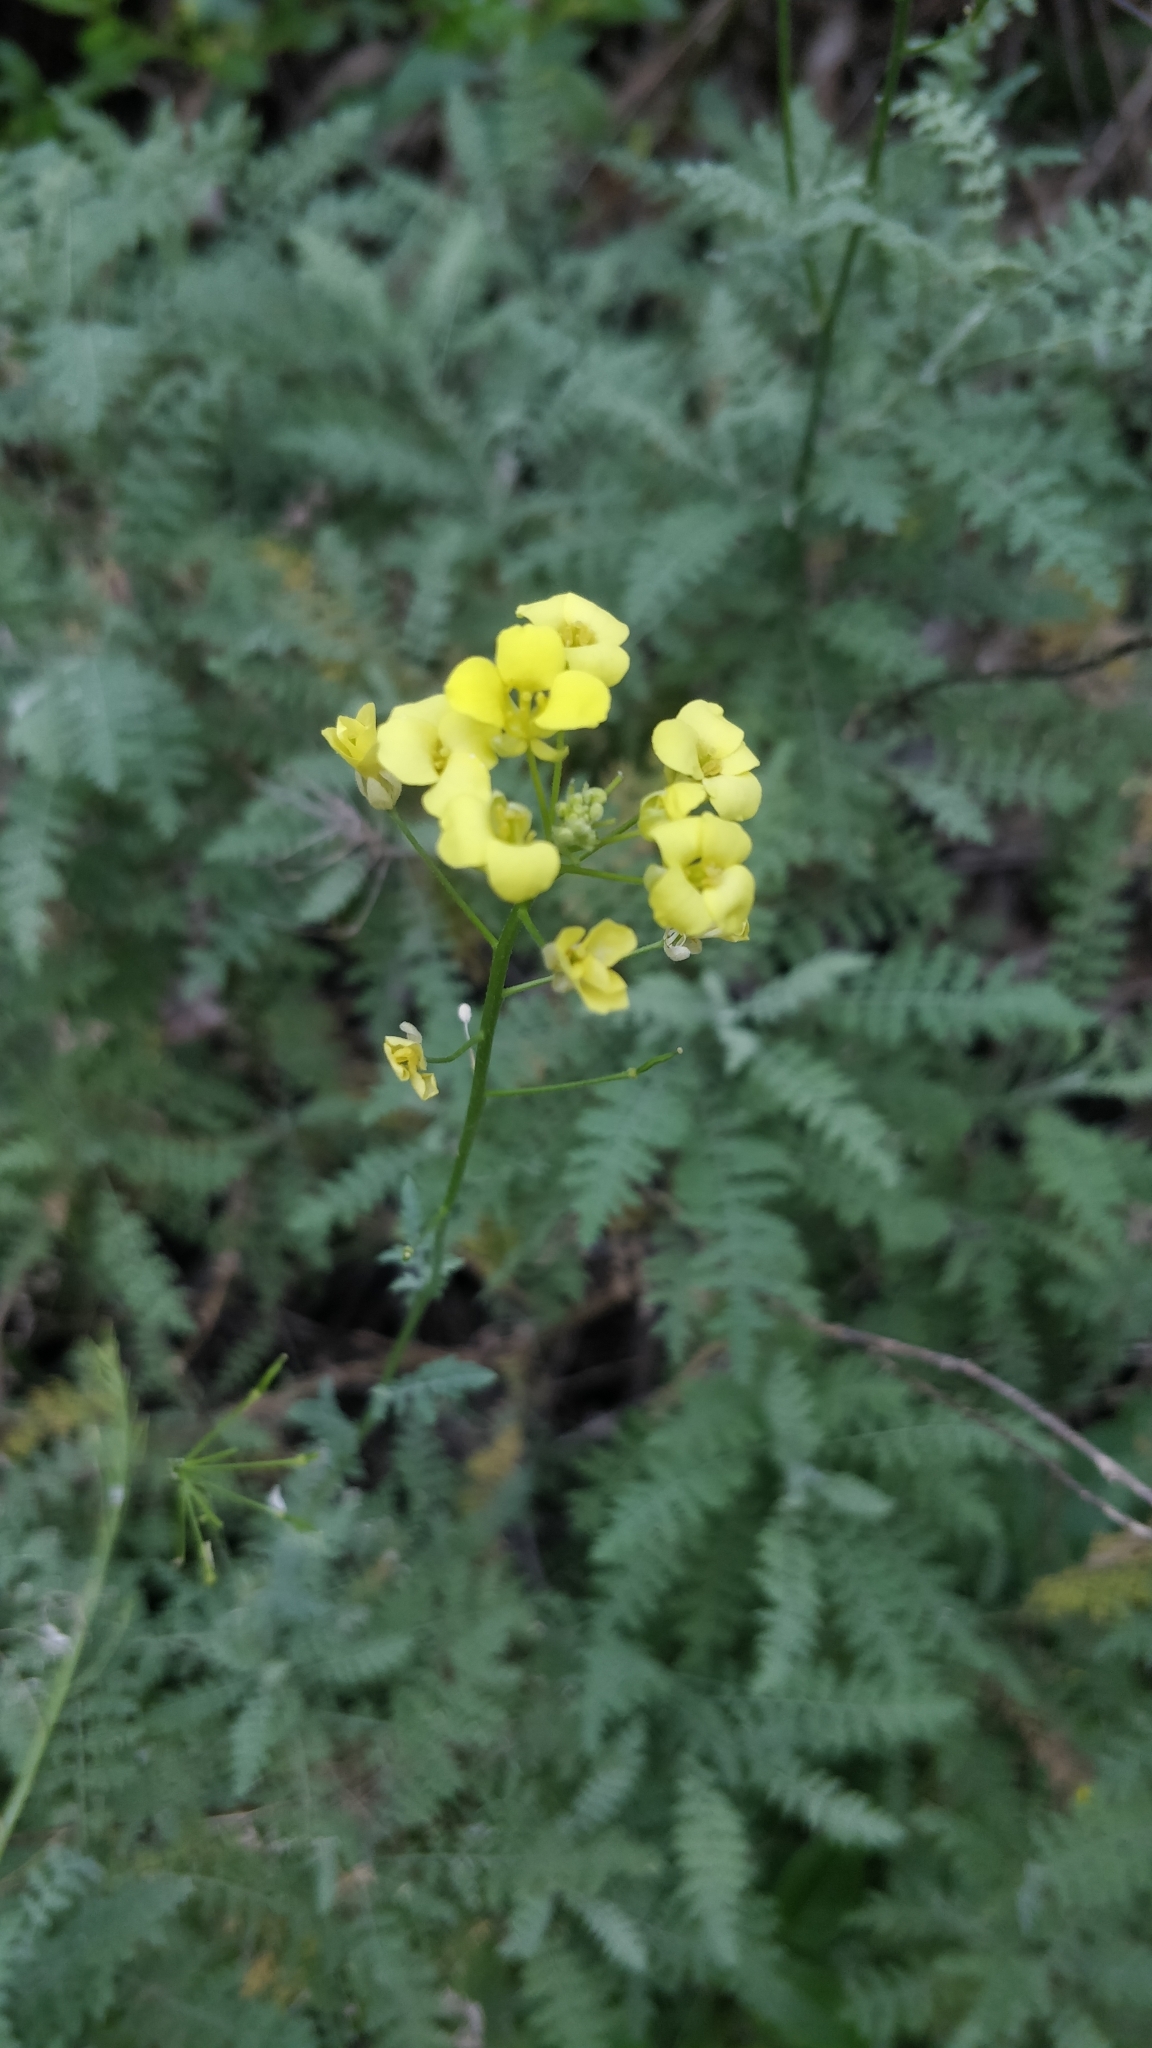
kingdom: Plantae
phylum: Tracheophyta
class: Magnoliopsida
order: Brassicales
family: Brassicaceae
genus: Descurainia
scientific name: Descurainia millefolia
